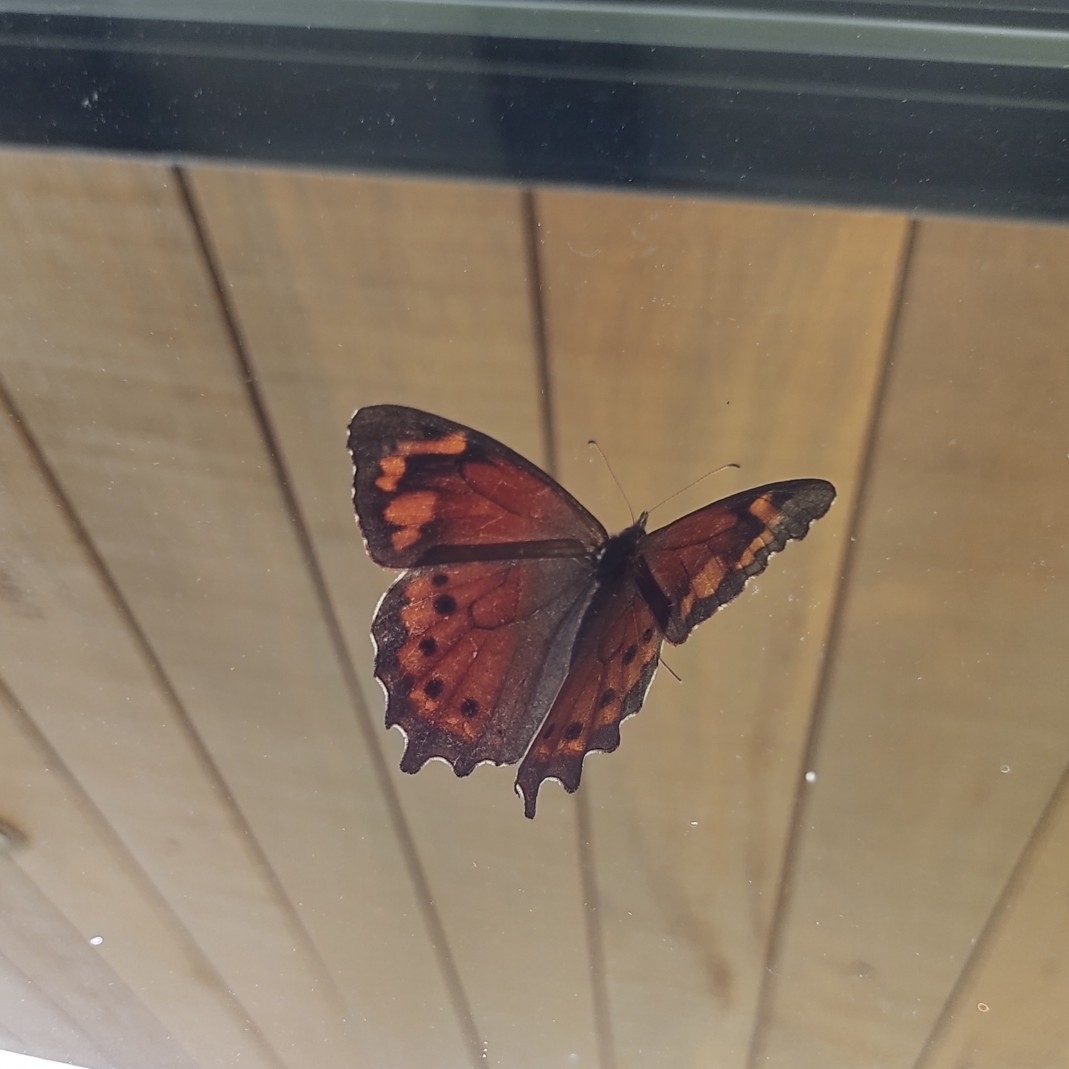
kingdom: Animalia
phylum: Arthropoda
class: Insecta
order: Lepidoptera
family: Nymphalidae
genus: Lasiophila
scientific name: Lasiophila zapatoza
